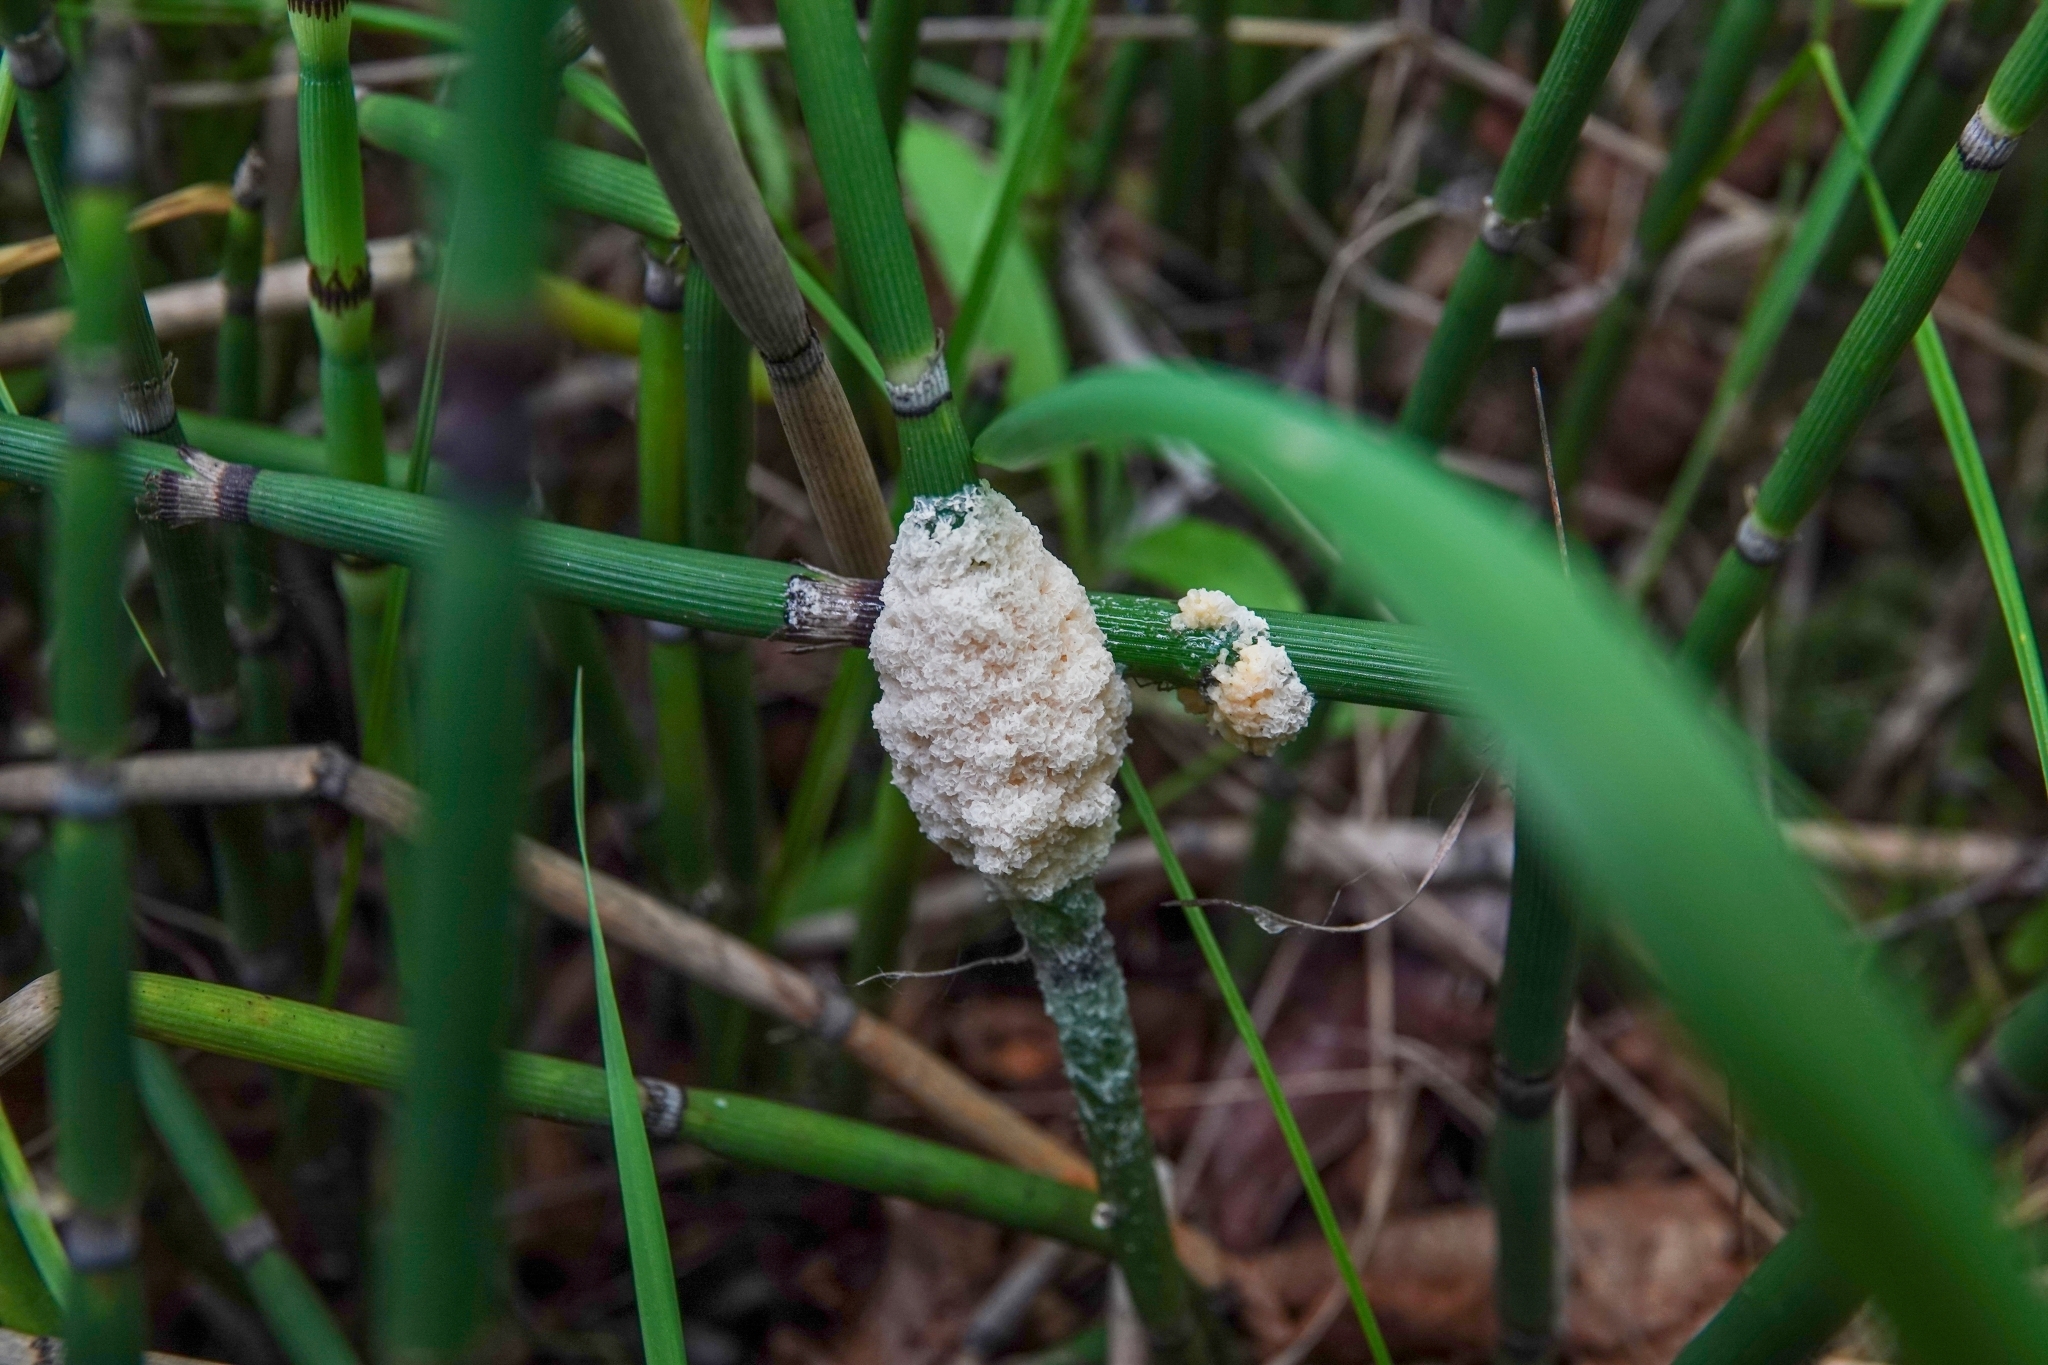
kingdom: Protozoa
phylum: Mycetozoa
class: Myxomycetes
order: Physarales
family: Physaraceae
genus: Didymium
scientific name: Didymium
